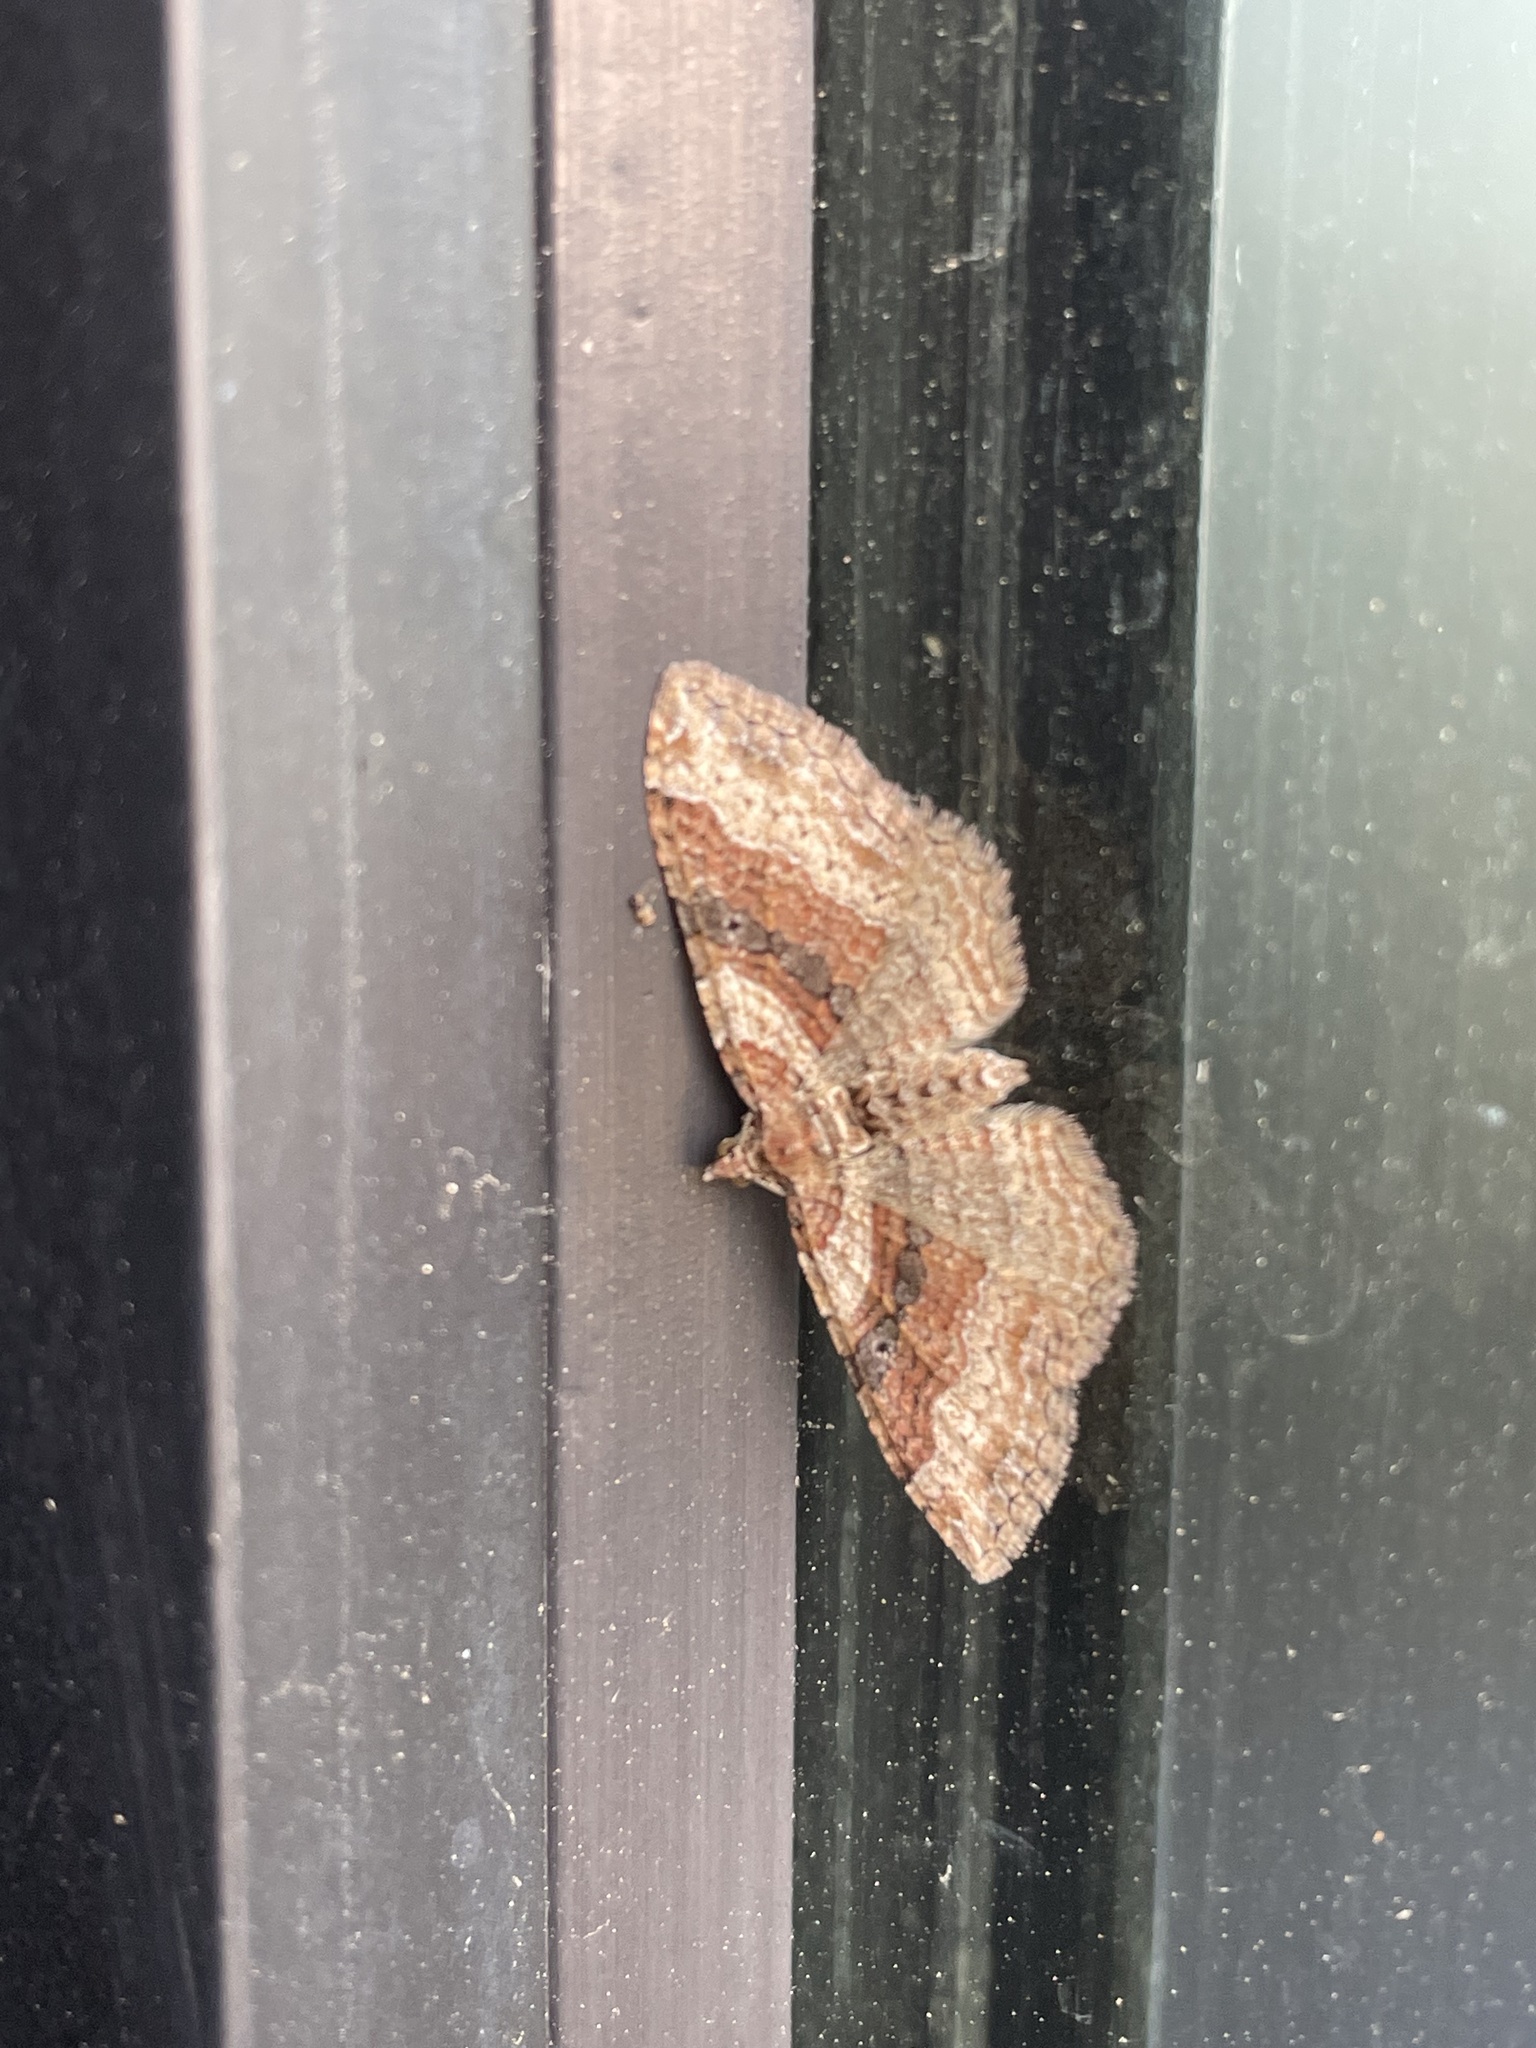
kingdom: Animalia
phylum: Arthropoda
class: Insecta
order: Lepidoptera
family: Geometridae
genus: Costaconvexa
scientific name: Costaconvexa centrostrigaria
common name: Bent-line carpet
